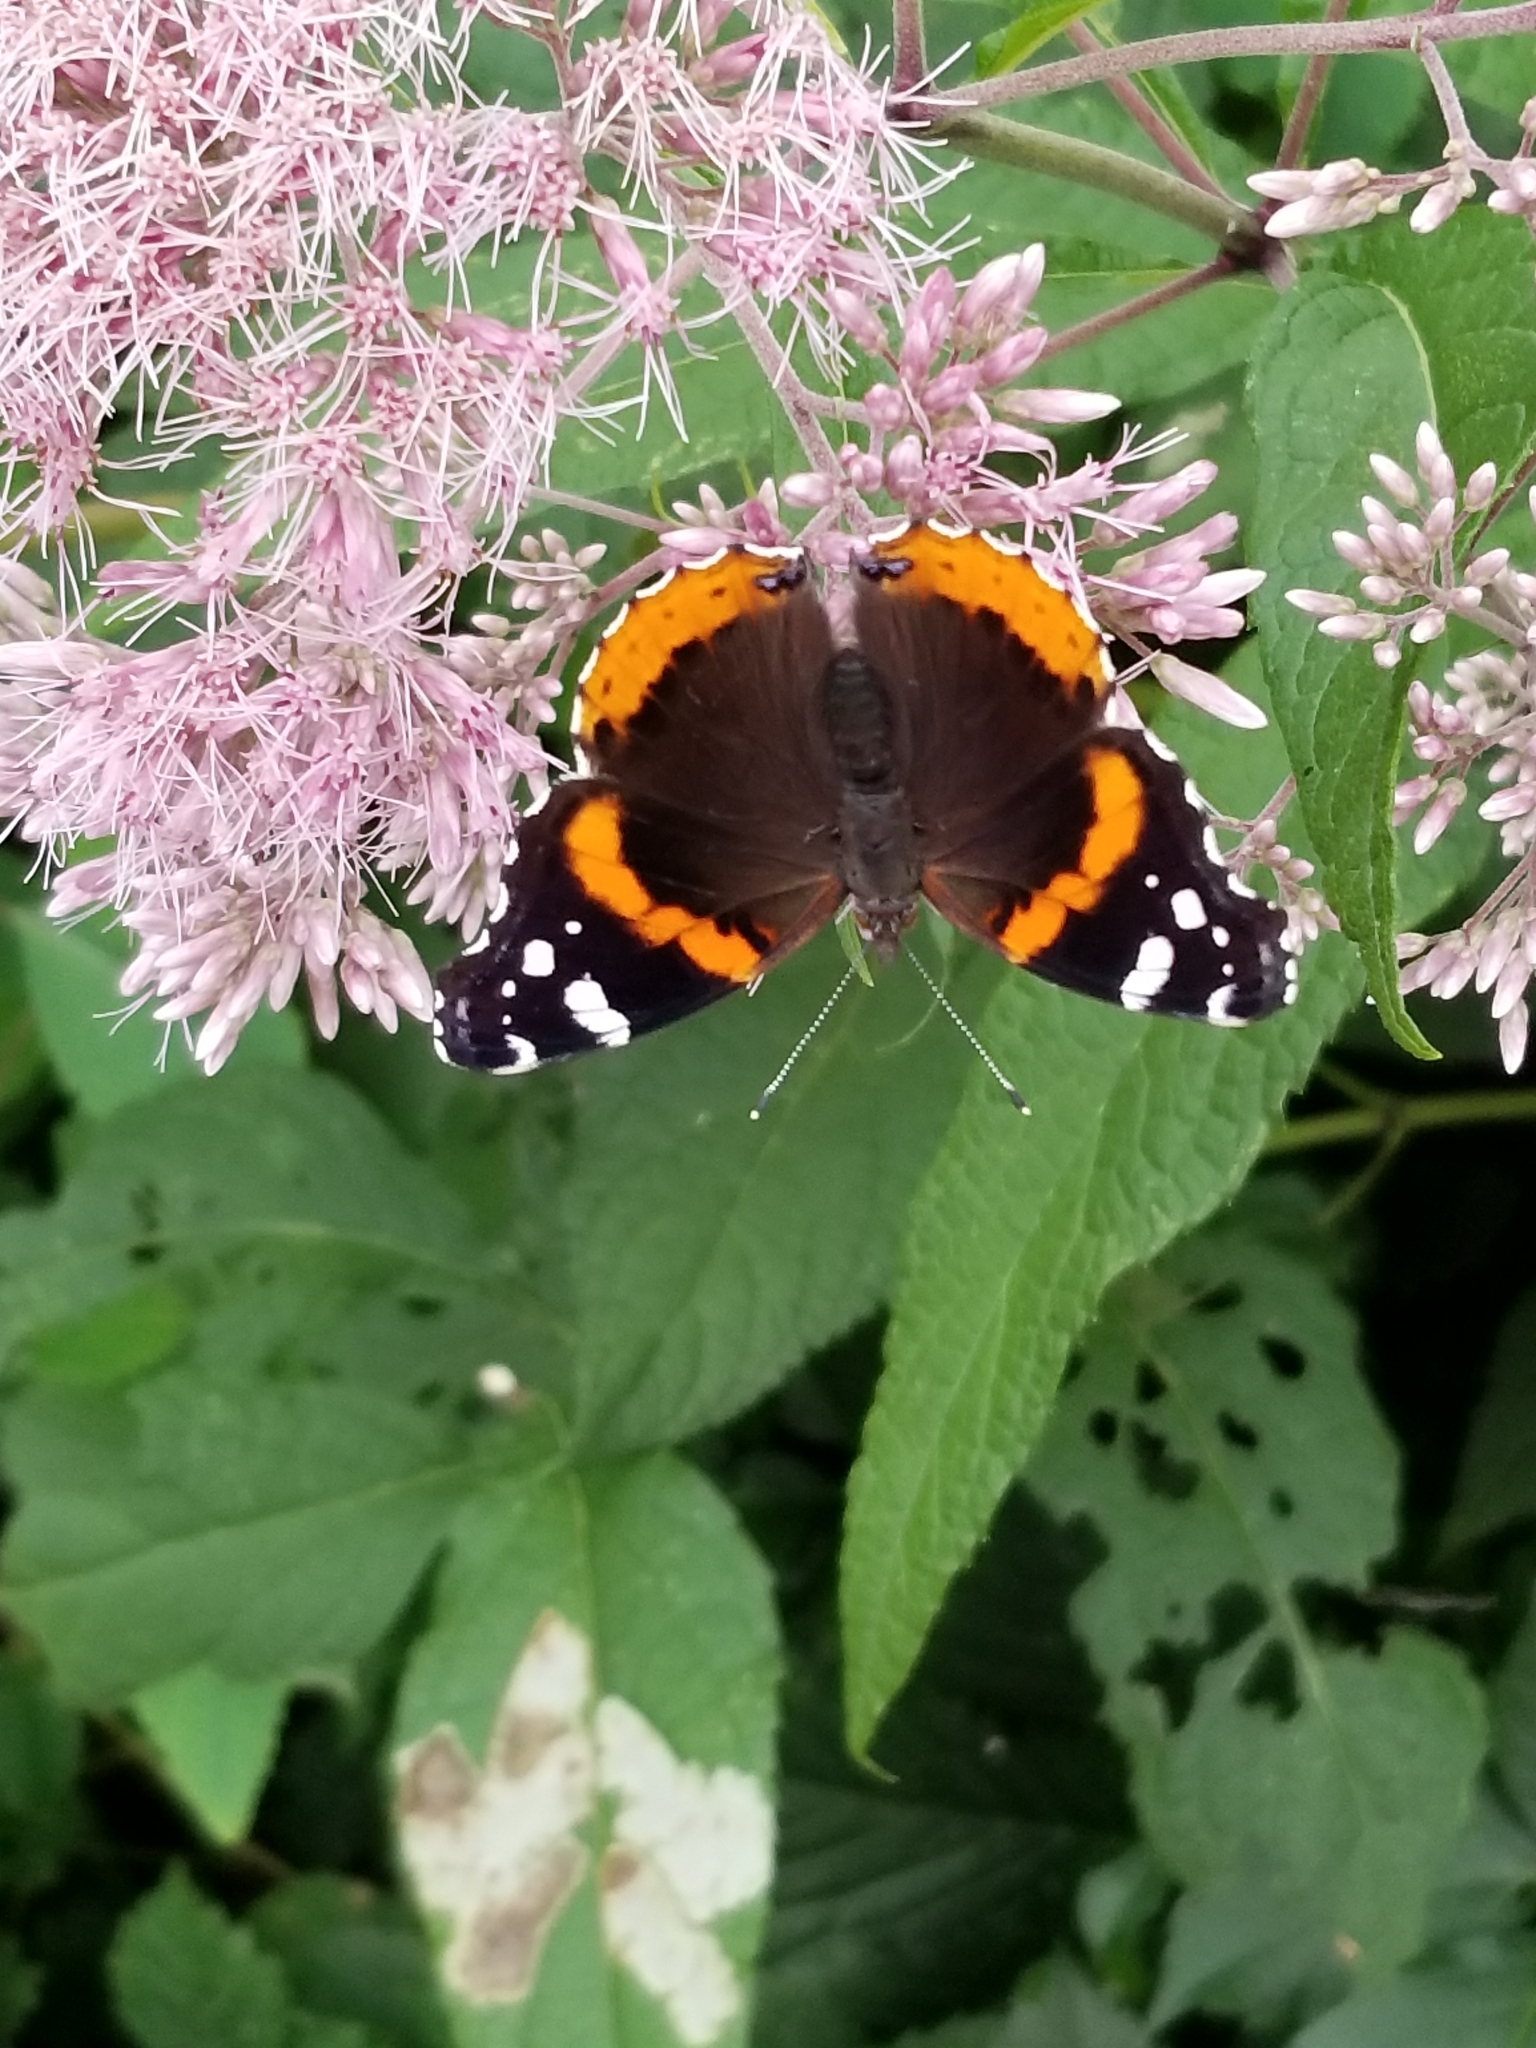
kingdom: Animalia
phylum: Arthropoda
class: Insecta
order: Lepidoptera
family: Nymphalidae
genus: Vanessa
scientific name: Vanessa atalanta
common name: Red admiral
